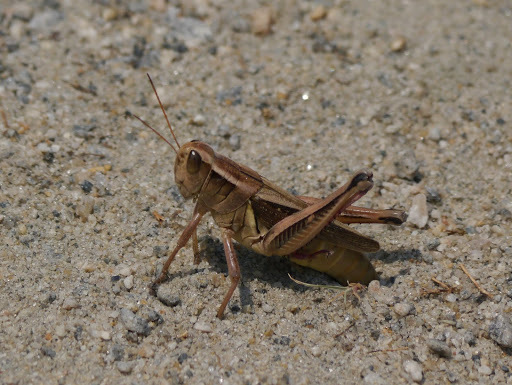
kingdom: Animalia
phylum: Arthropoda
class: Insecta
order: Orthoptera
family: Acrididae
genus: Melanoplus
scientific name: Melanoplus bivittatus
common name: Two-striped grasshopper
